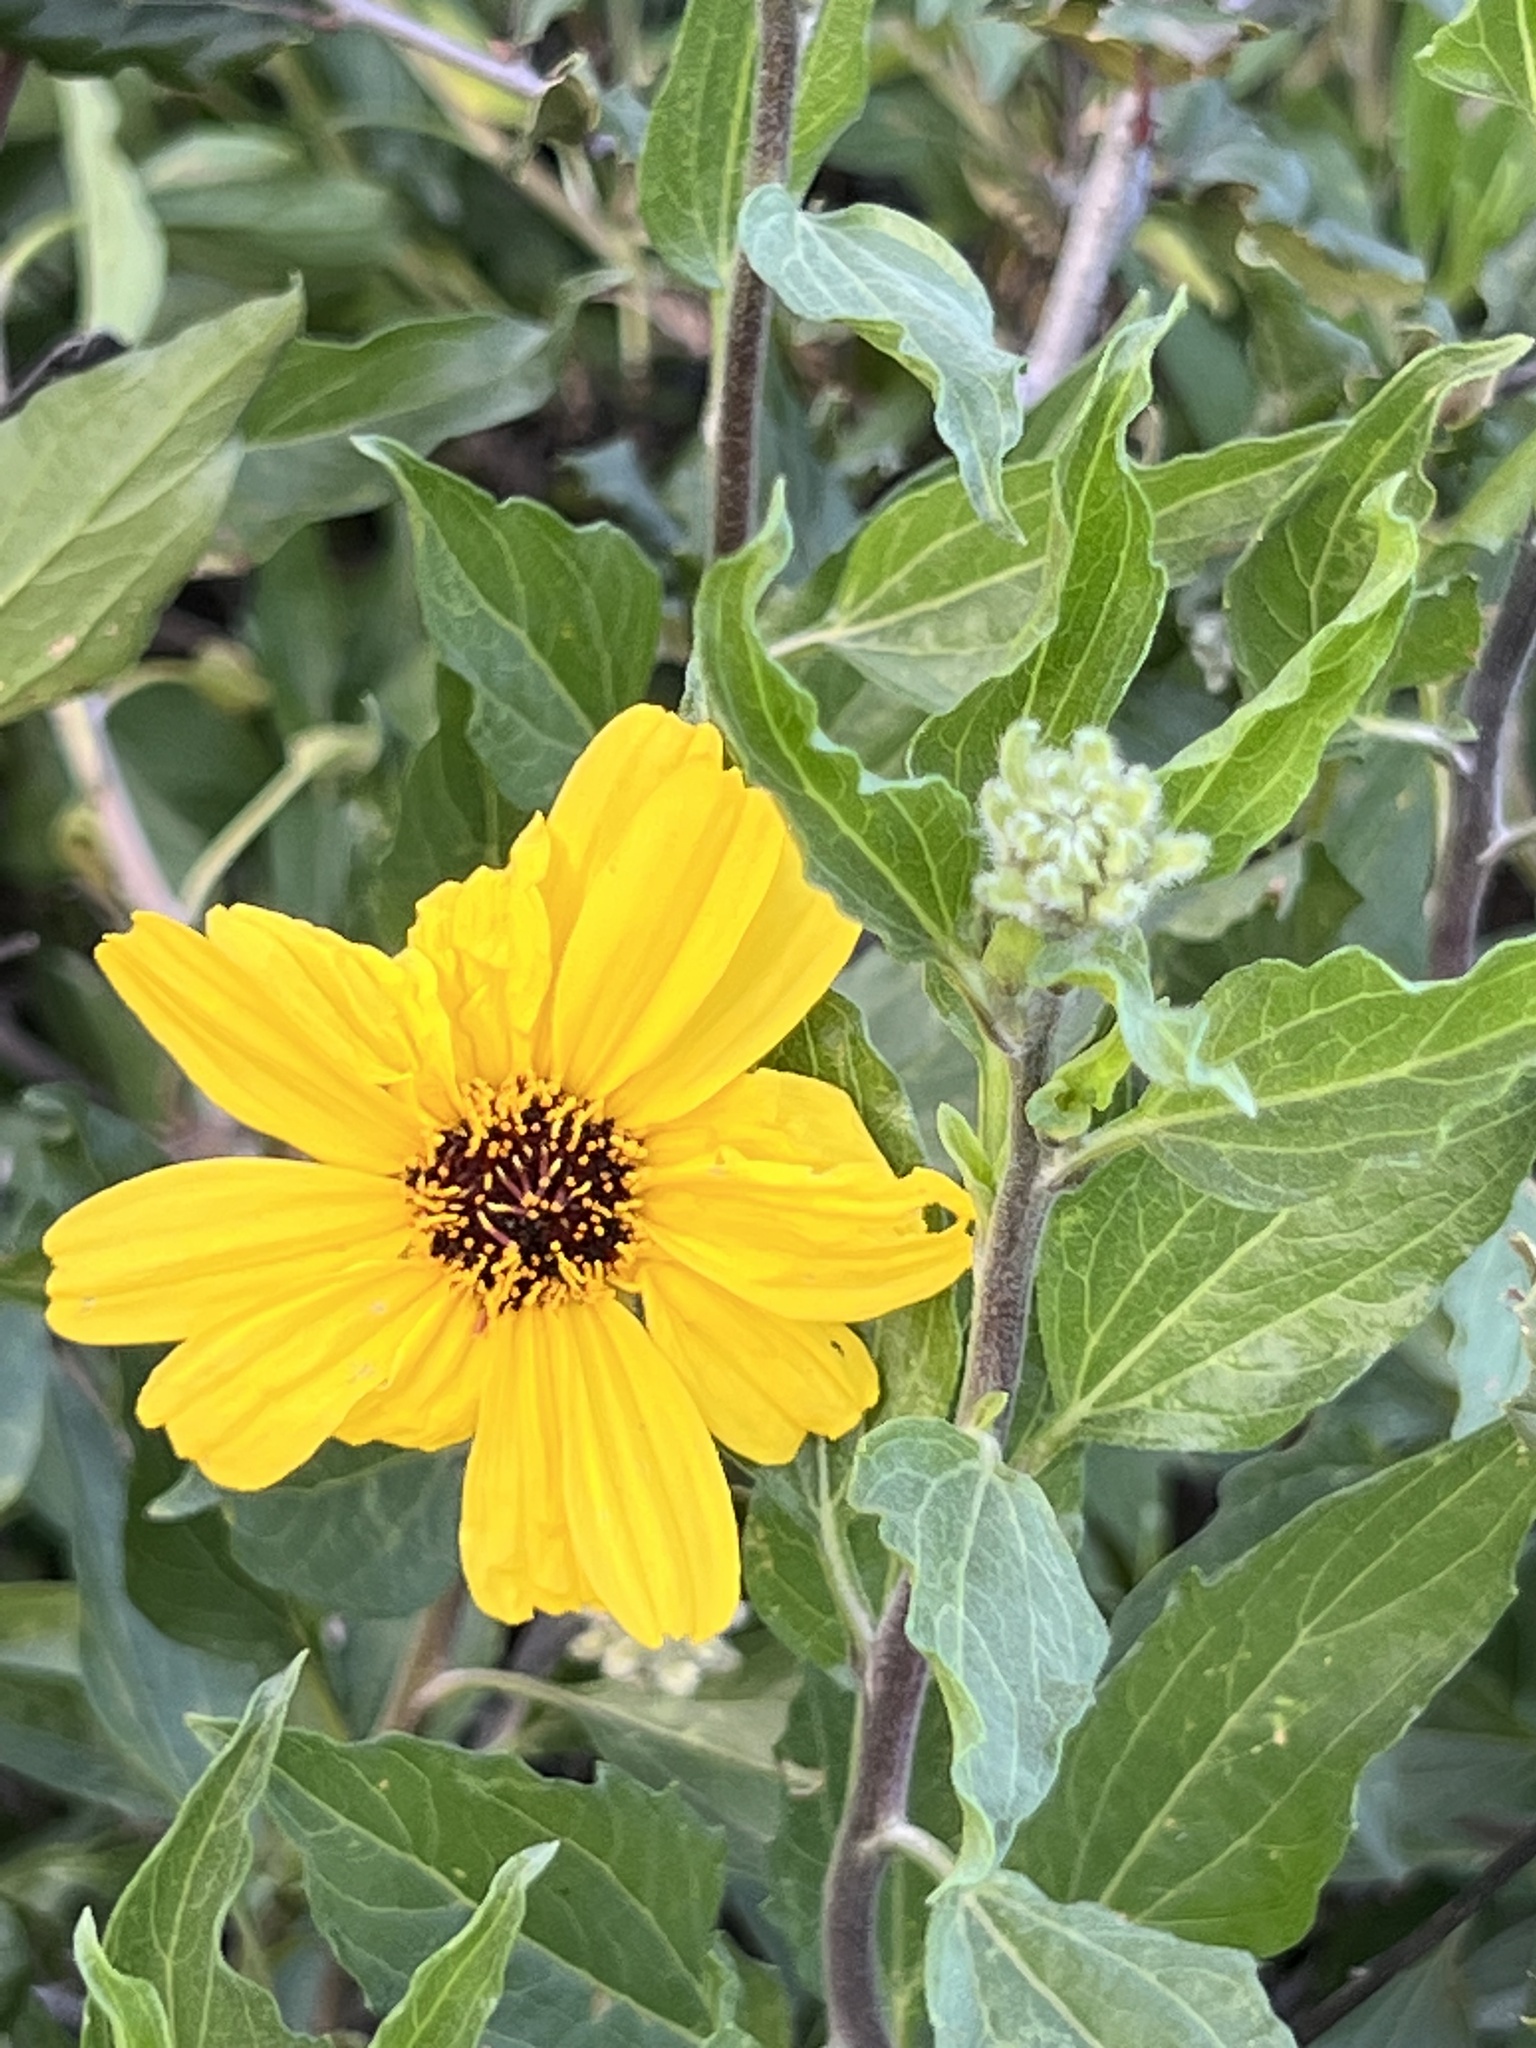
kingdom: Plantae
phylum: Tracheophyta
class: Magnoliopsida
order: Asterales
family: Asteraceae
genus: Encelia
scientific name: Encelia californica
